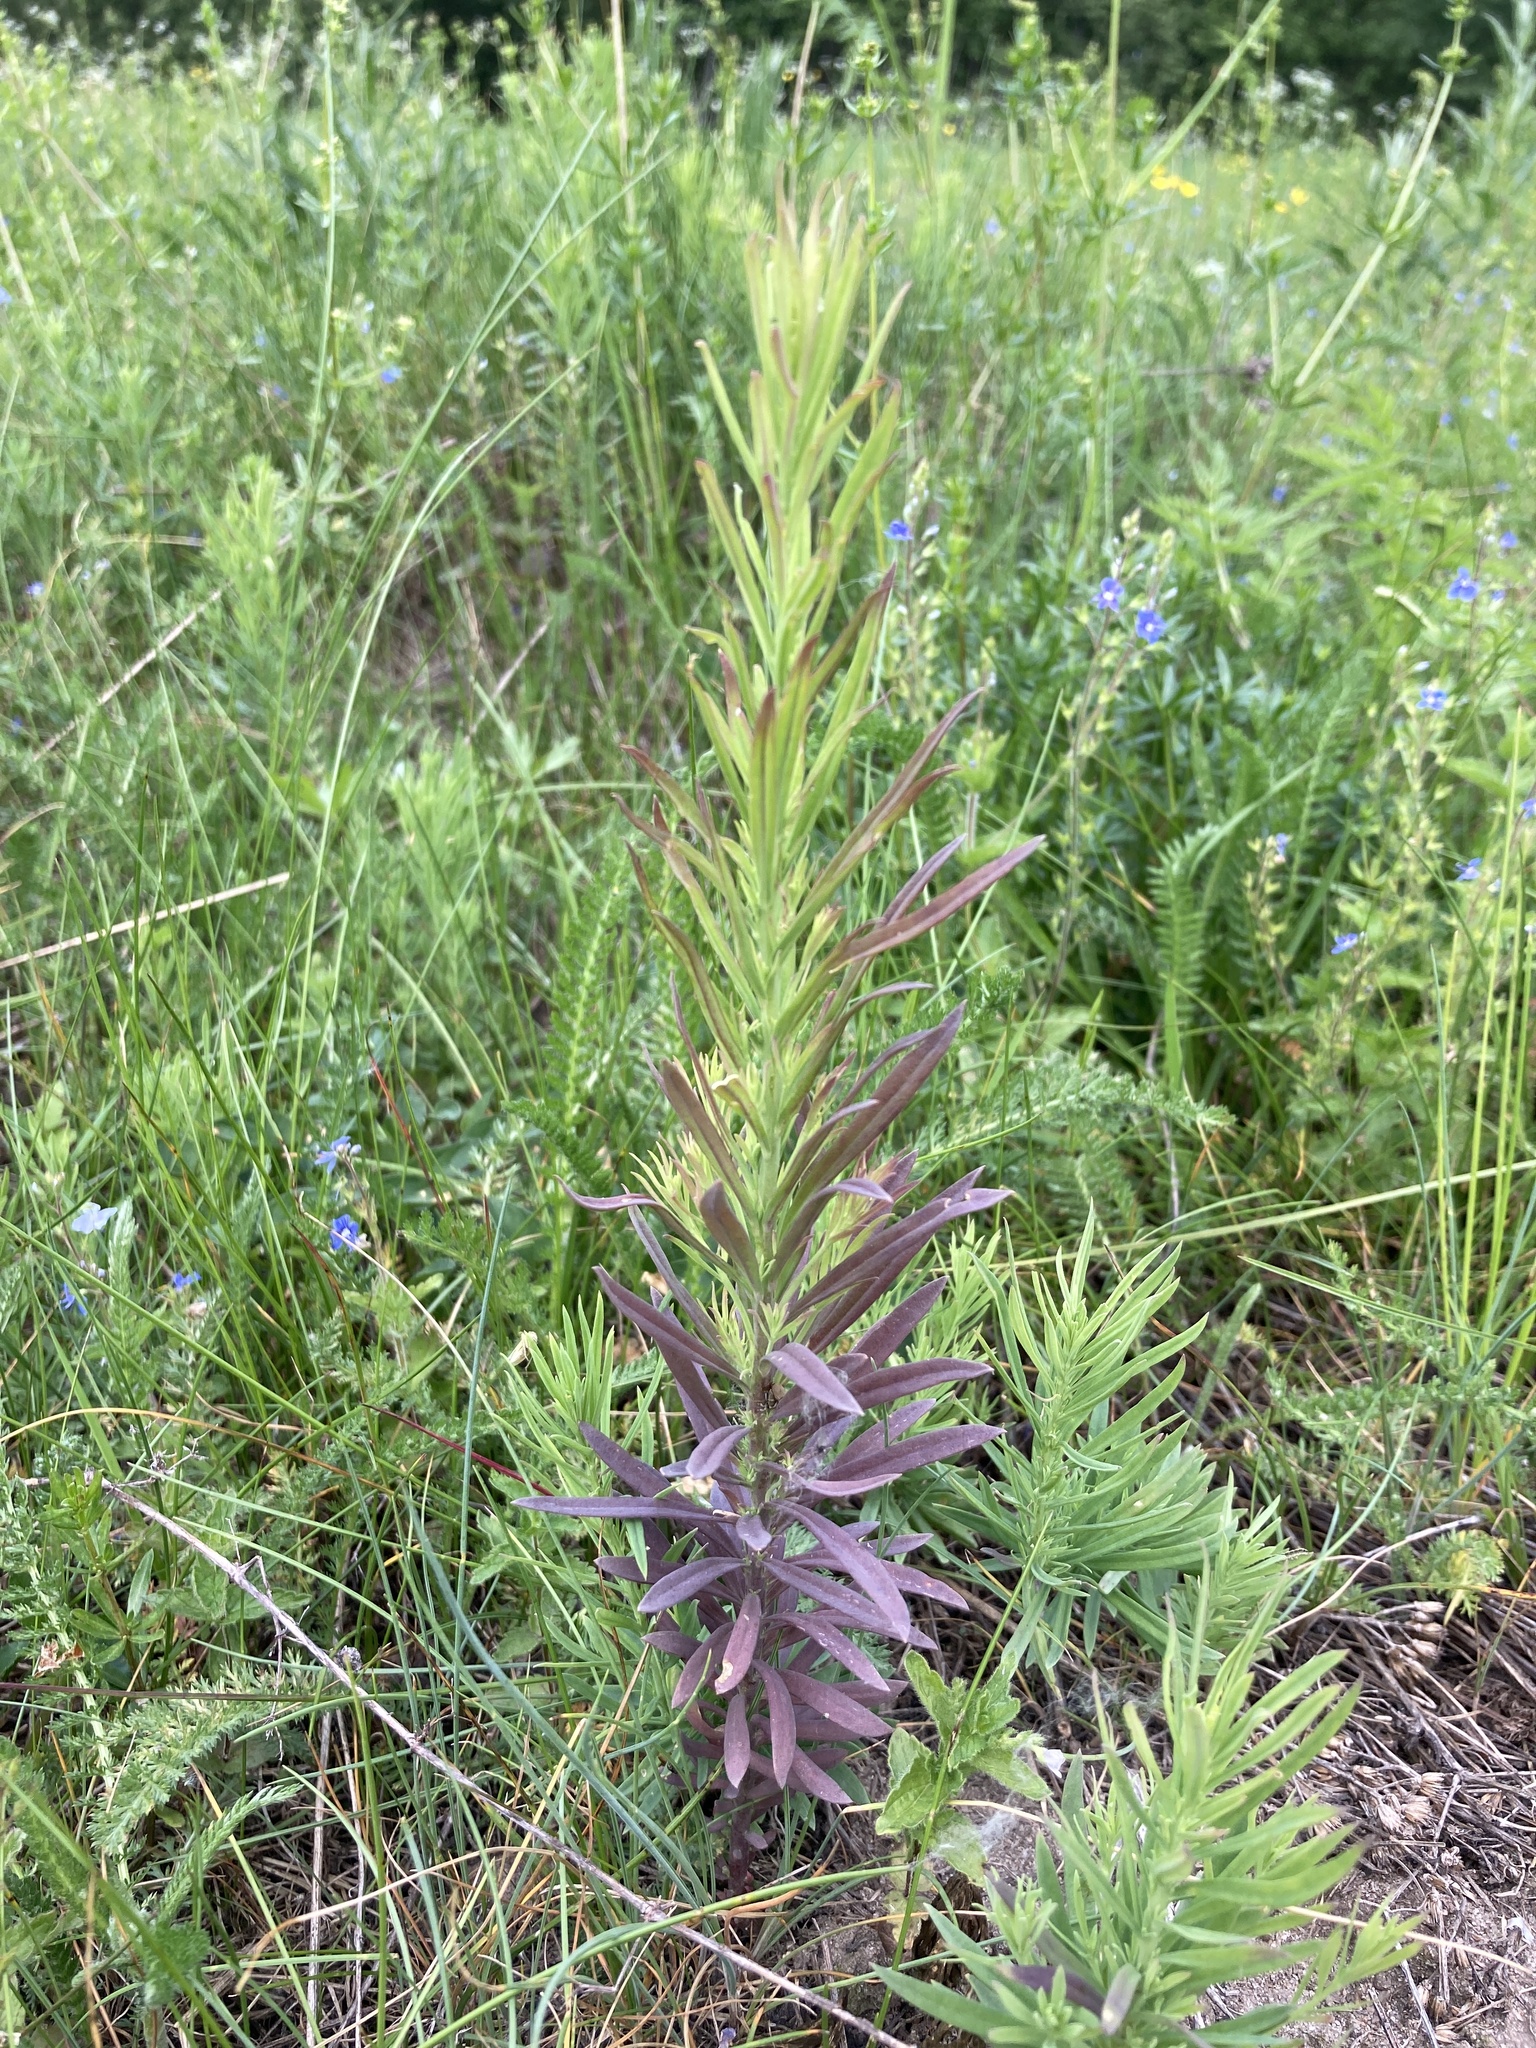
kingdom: Plantae
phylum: Tracheophyta
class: Magnoliopsida
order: Asterales
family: Asteraceae
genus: Erigeron
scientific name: Erigeron canadensis
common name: Canadian fleabane
